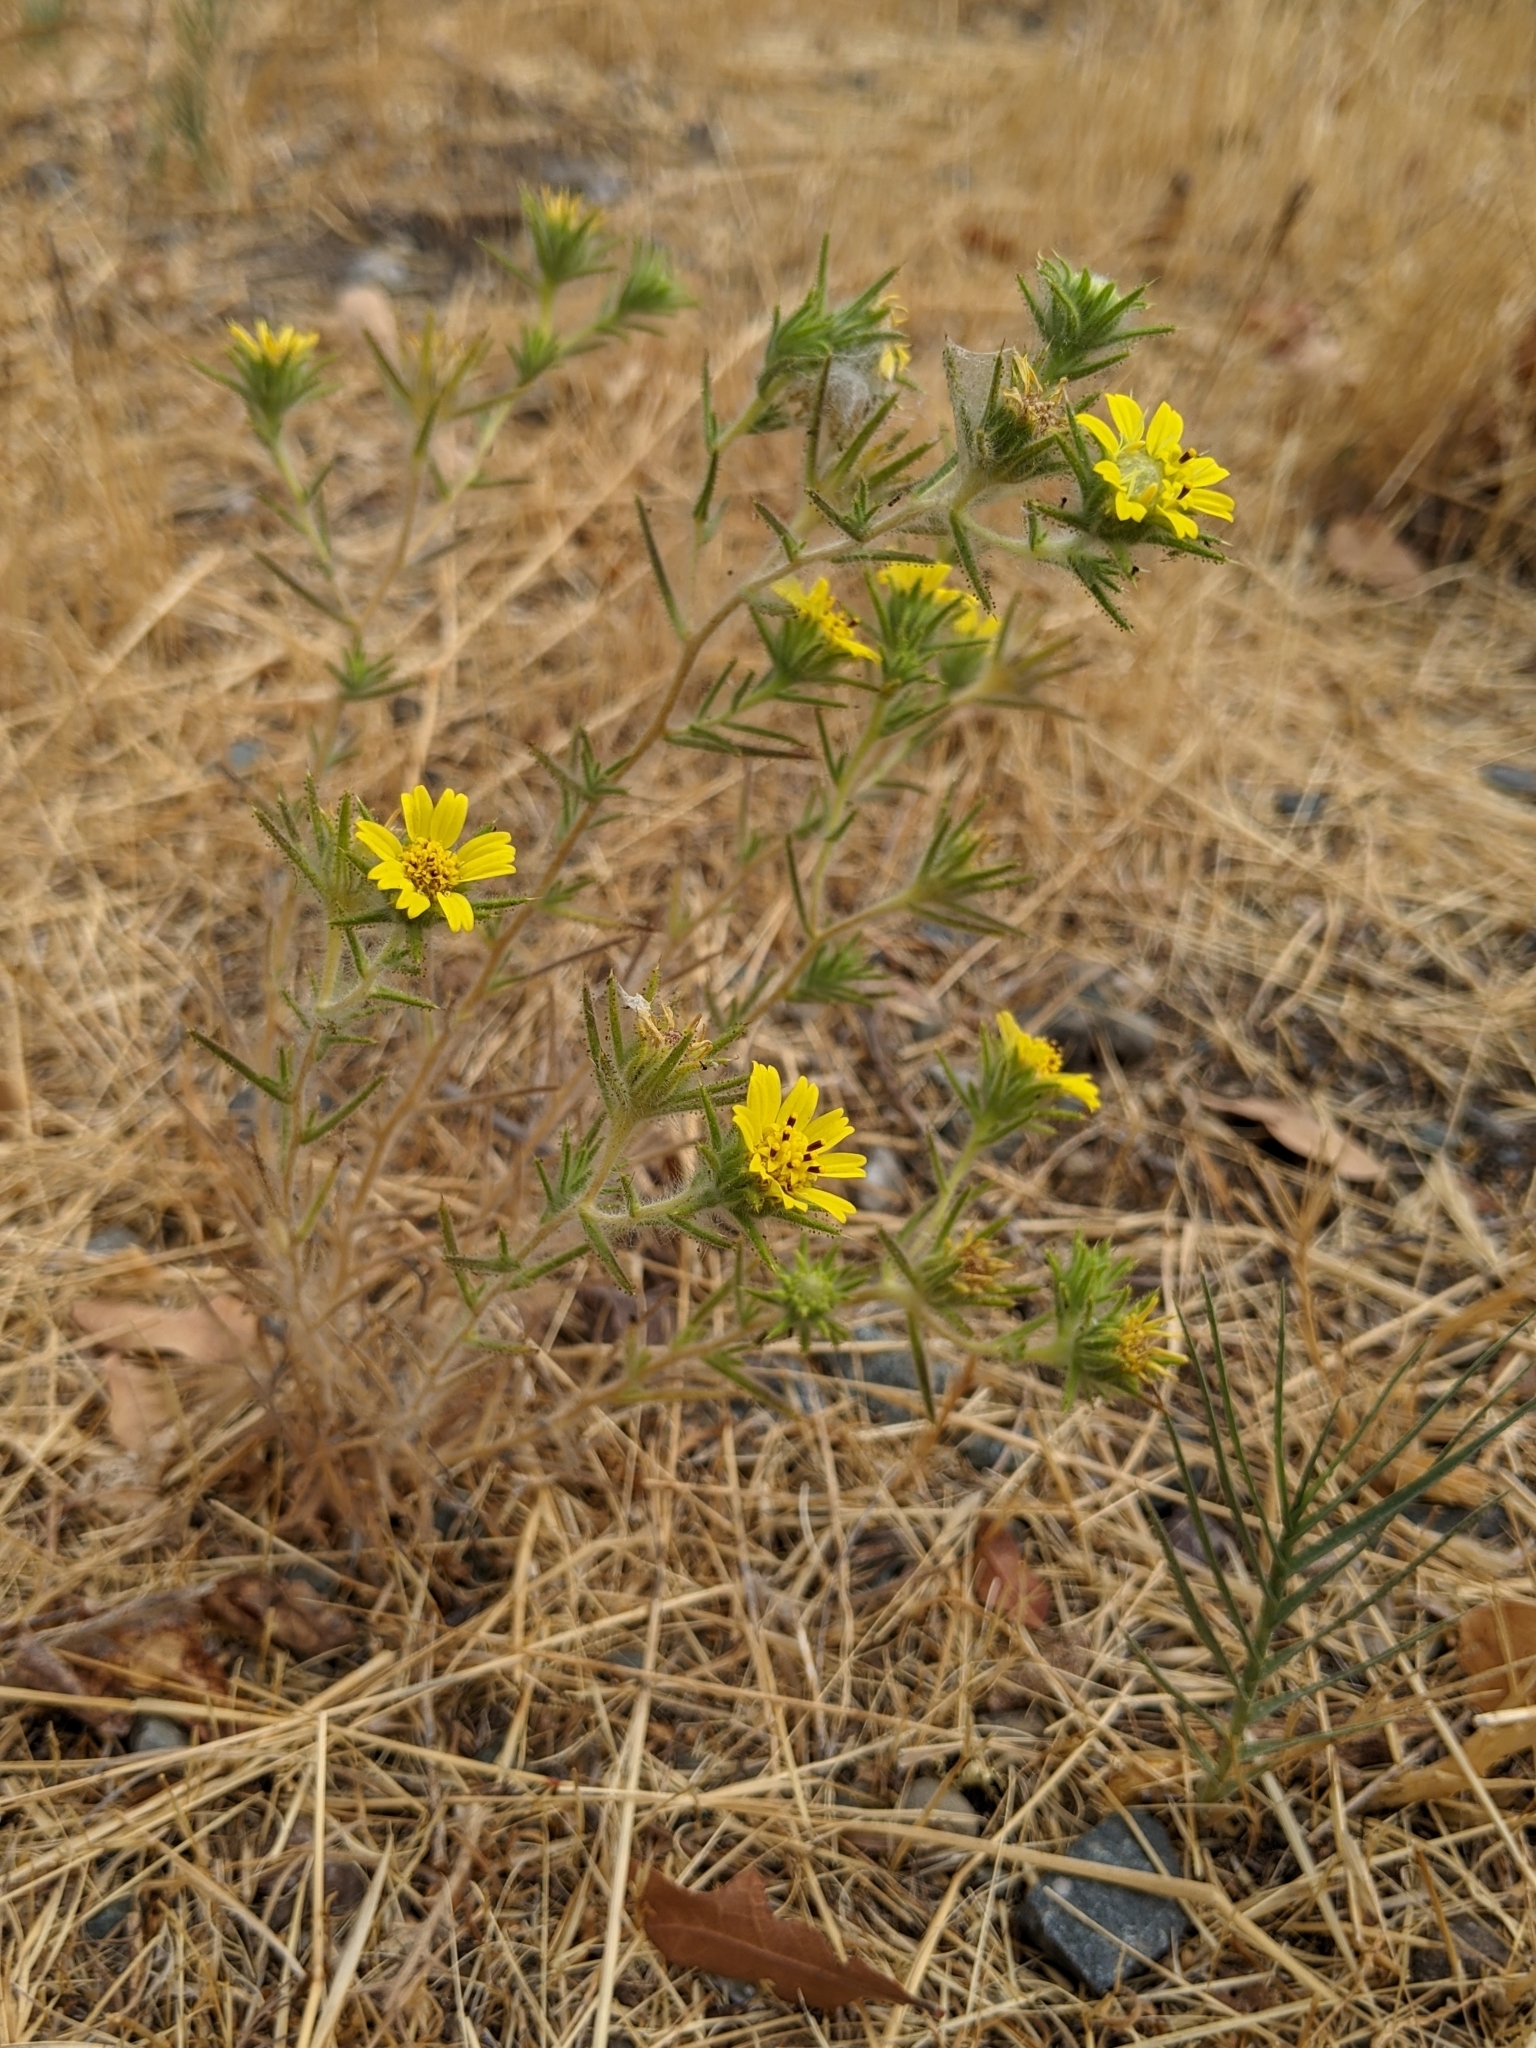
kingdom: Plantae
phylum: Tracheophyta
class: Magnoliopsida
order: Asterales
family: Asteraceae
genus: Centromadia
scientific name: Centromadia fitchii
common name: Fitch's spikeweed
